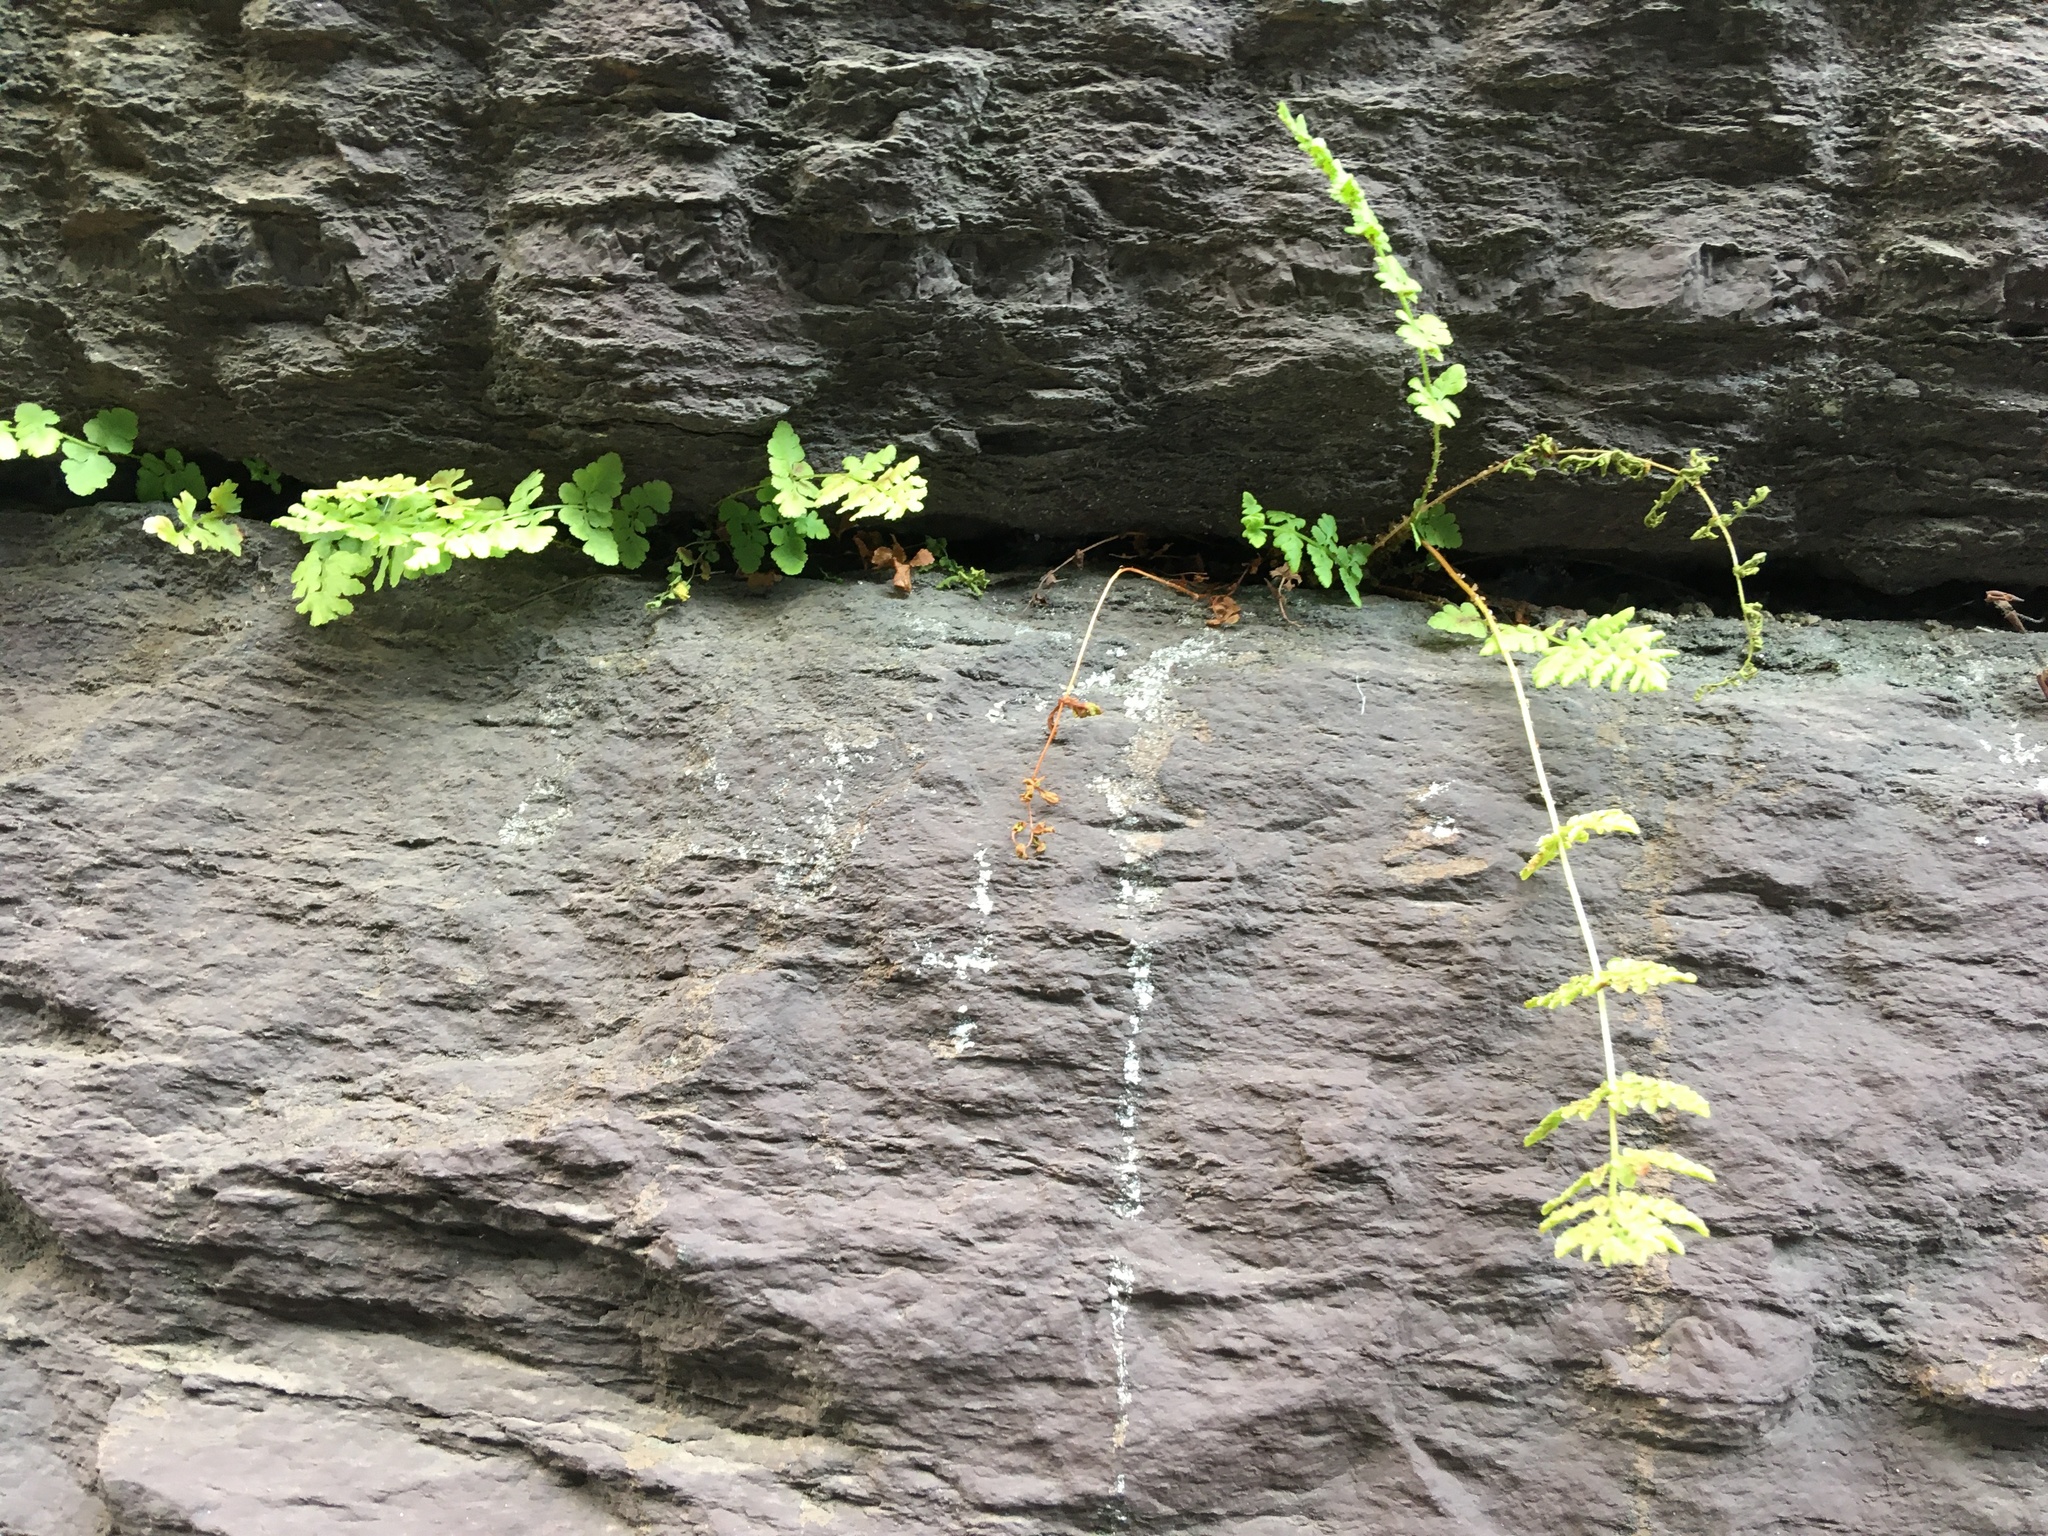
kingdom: Plantae
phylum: Tracheophyta
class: Polypodiopsida
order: Polypodiales
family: Woodsiaceae
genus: Physematium
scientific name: Physematium obtusum
